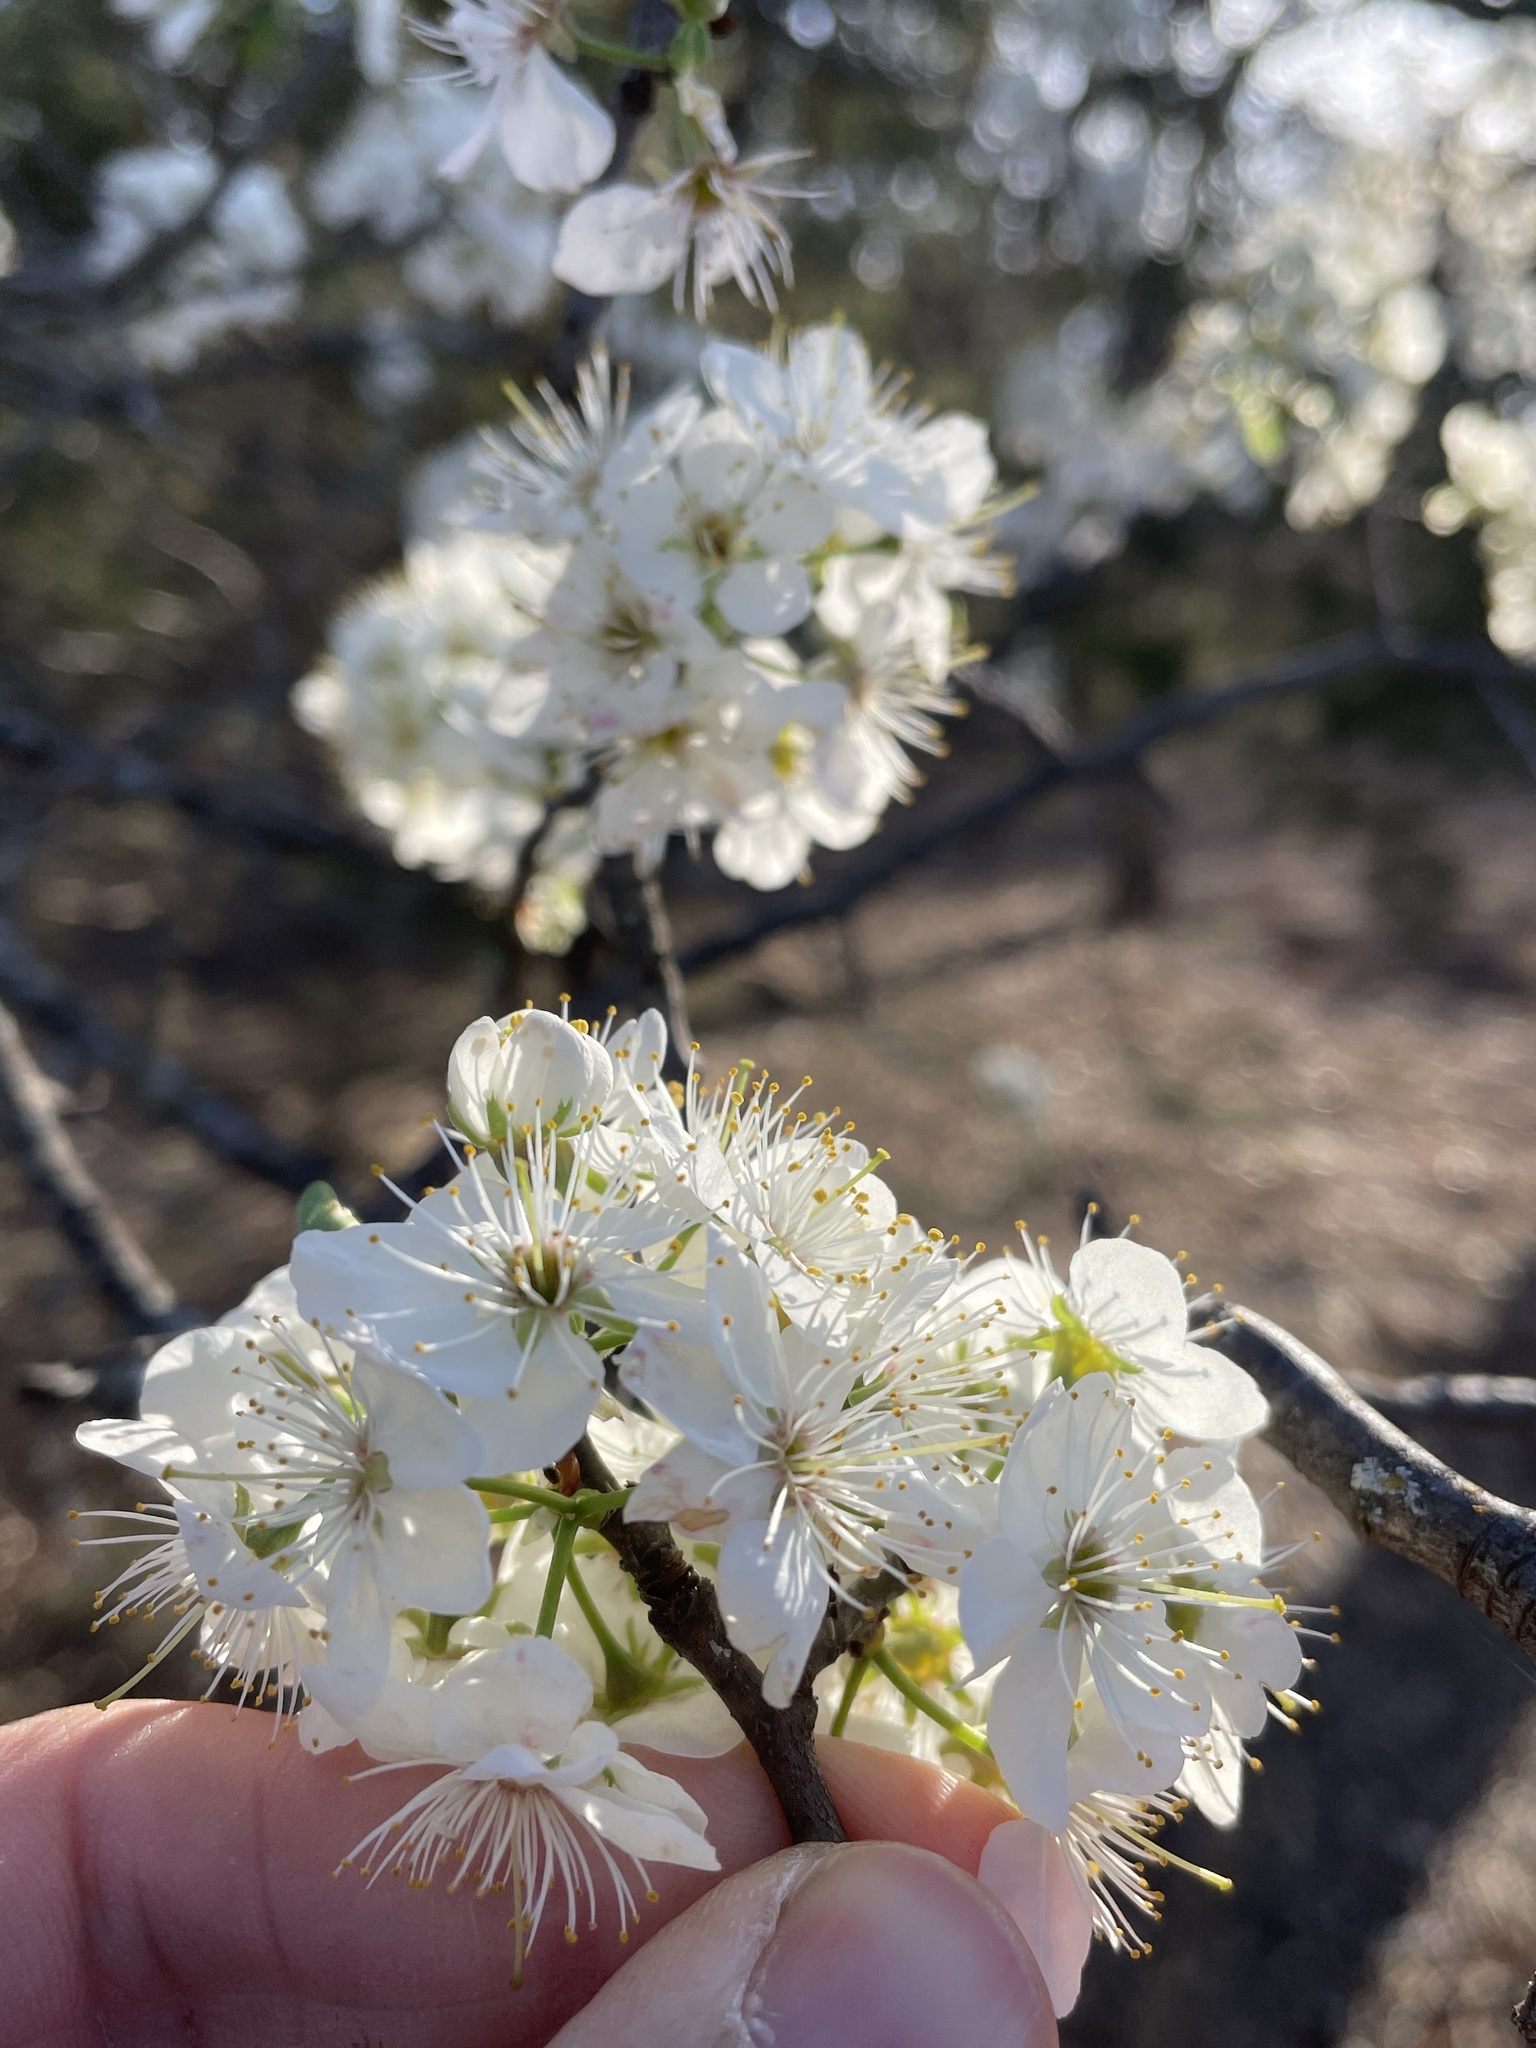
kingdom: Plantae
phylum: Tracheophyta
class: Magnoliopsida
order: Rosales
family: Rosaceae
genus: Prunus
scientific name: Prunus mexicana
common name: Mexican plum
